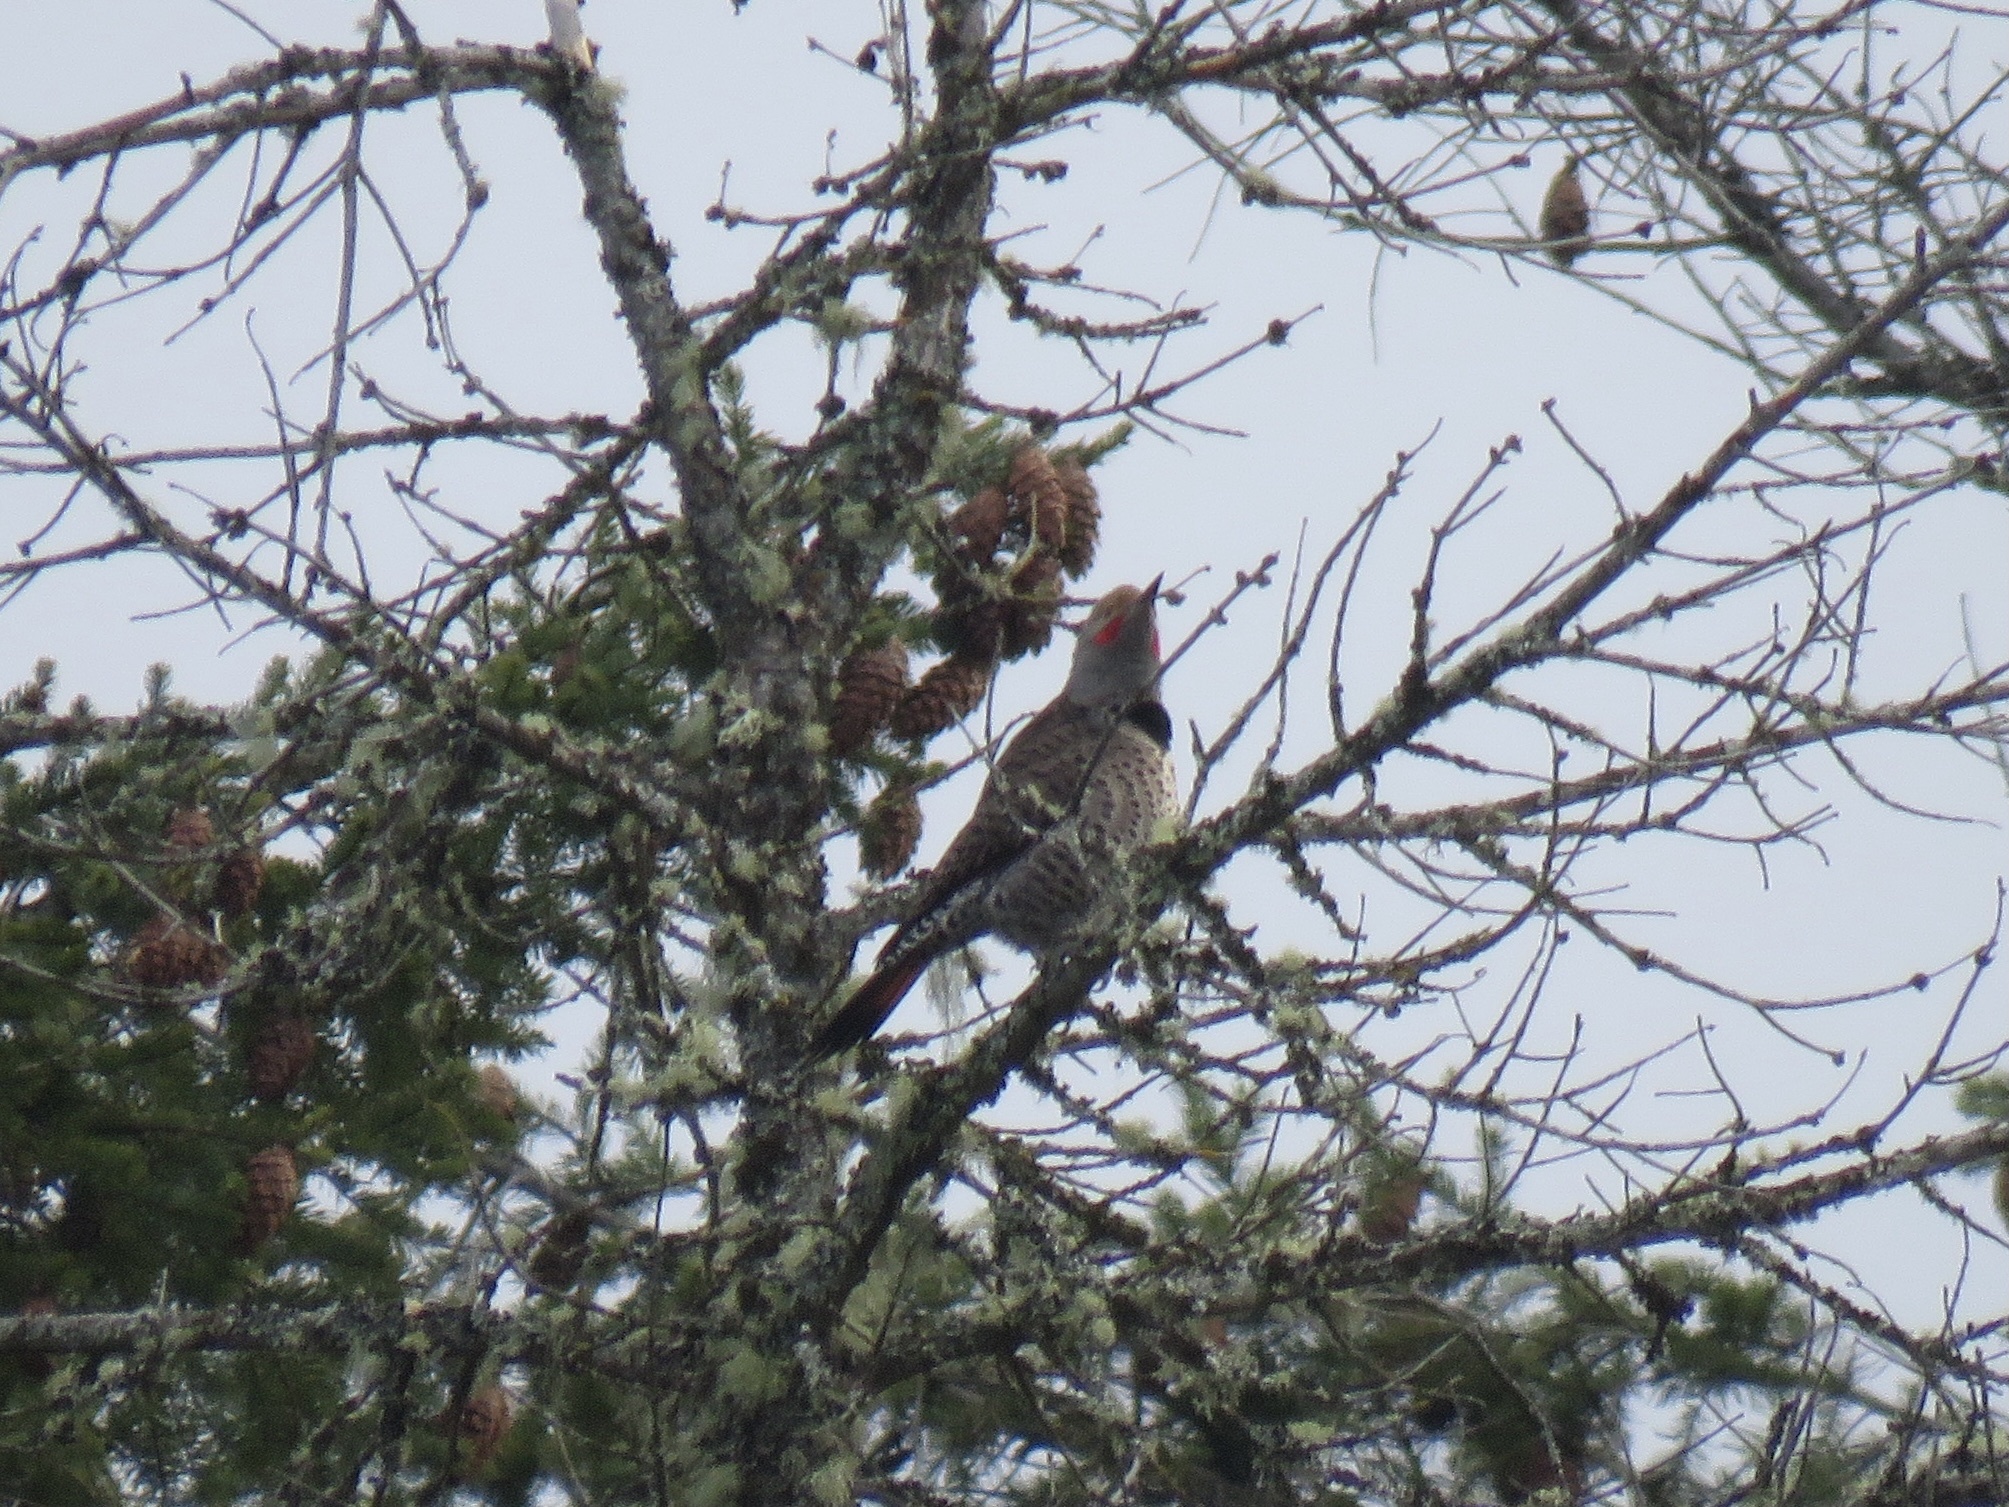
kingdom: Animalia
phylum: Chordata
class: Aves
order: Piciformes
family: Picidae
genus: Colaptes
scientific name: Colaptes auratus
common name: Northern flicker
